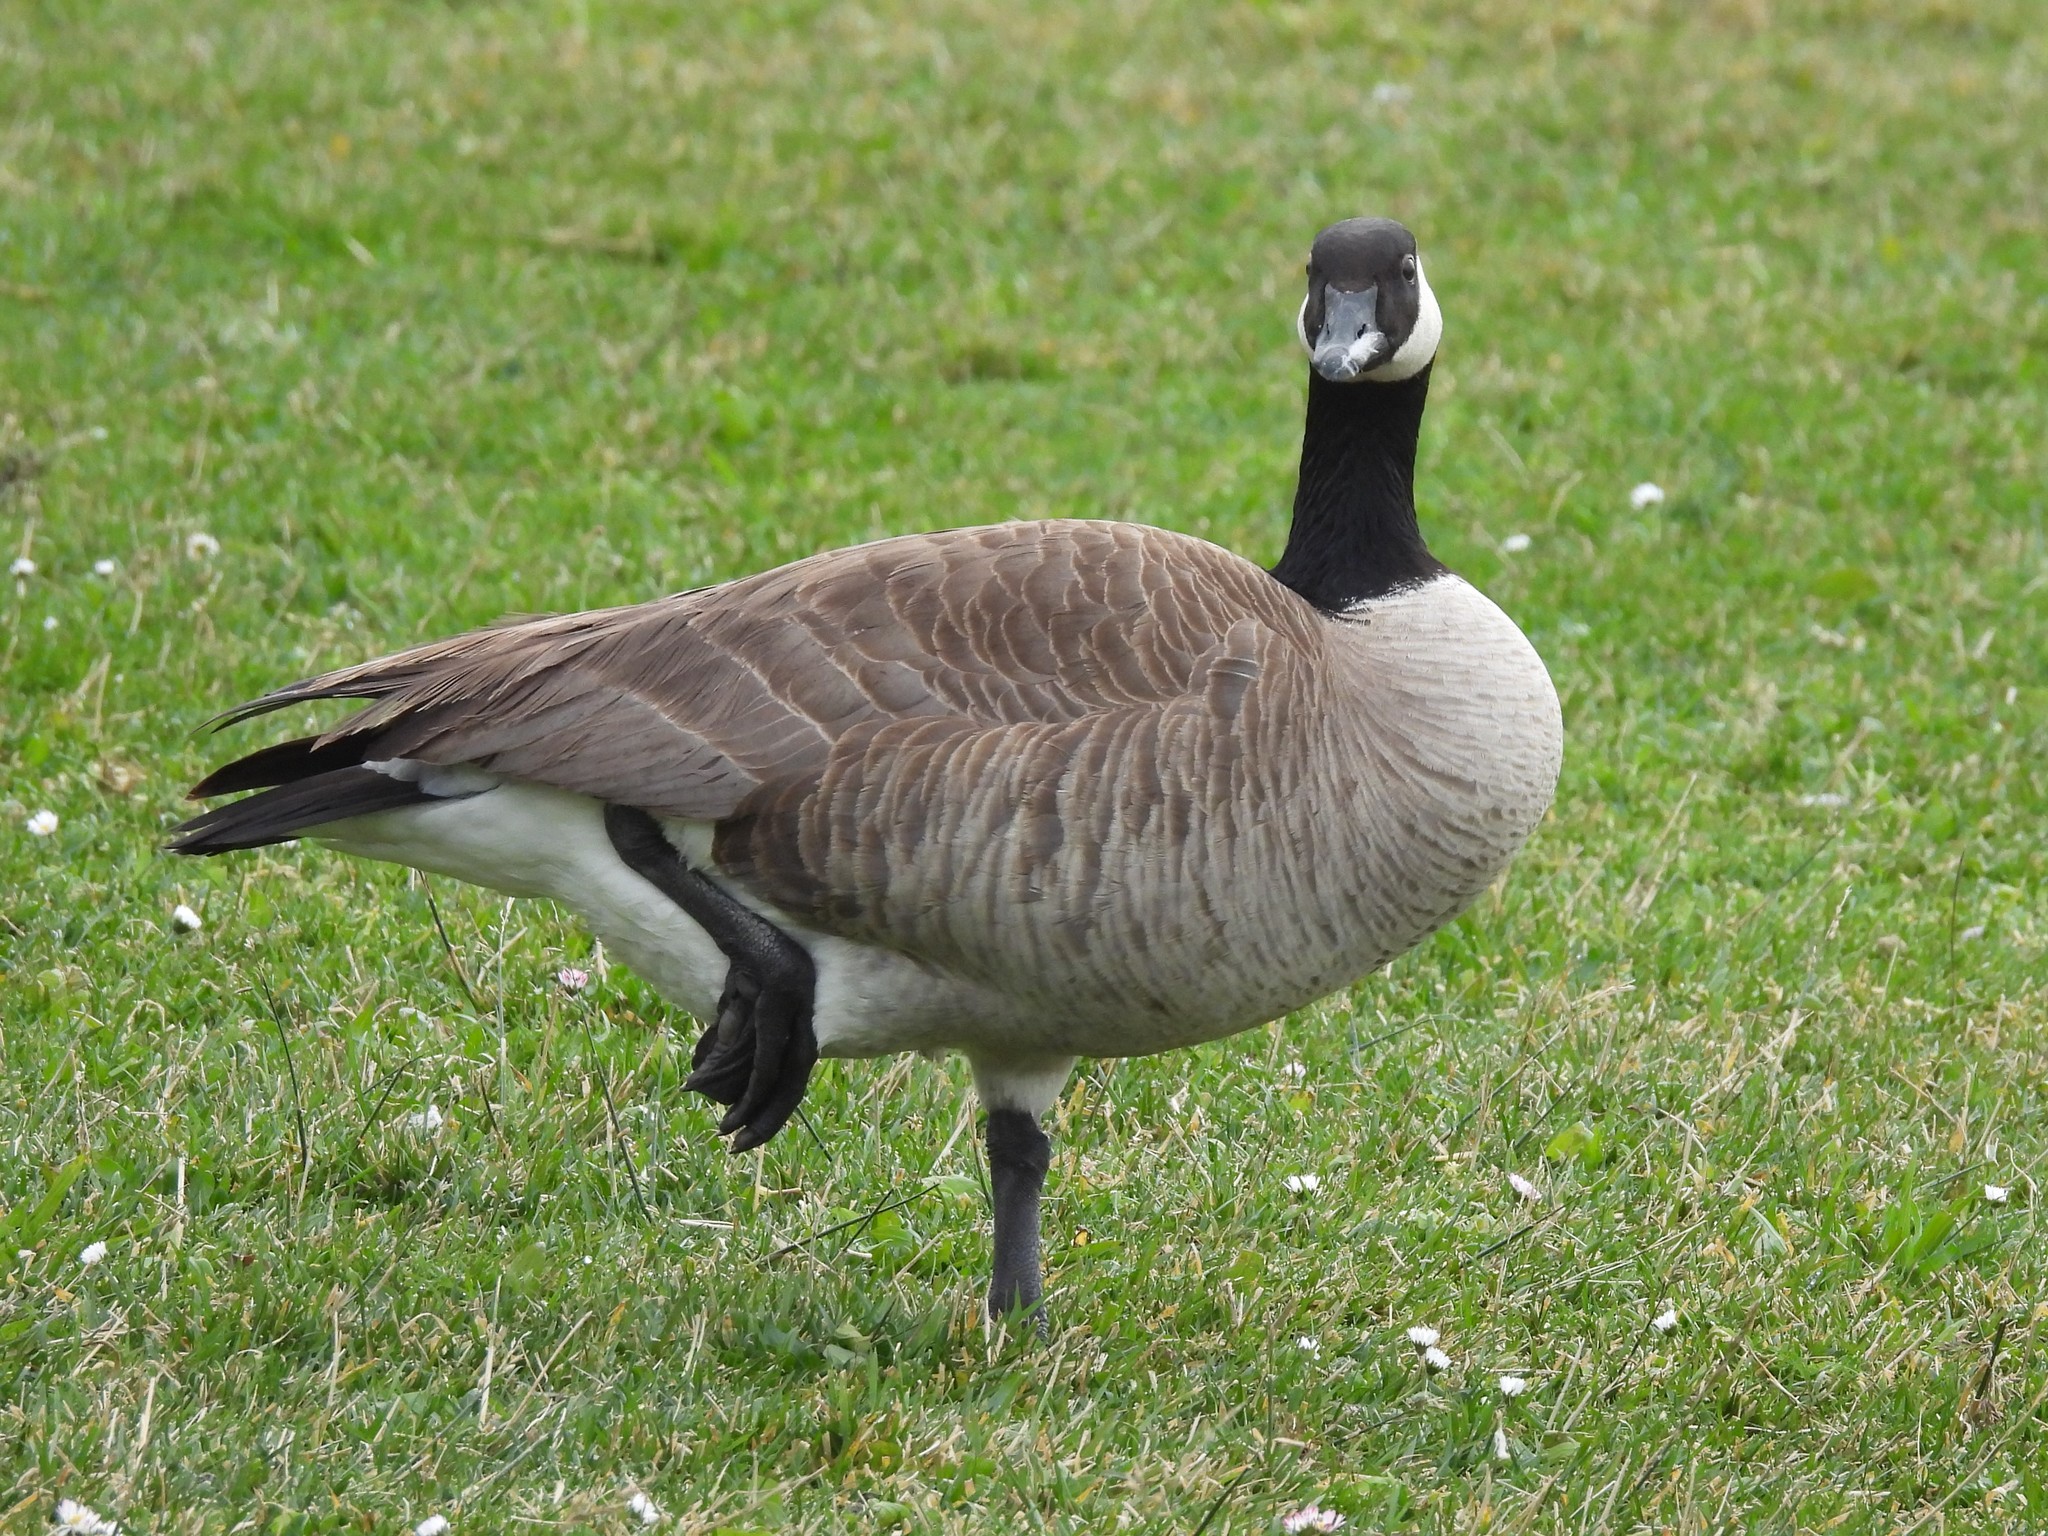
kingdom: Animalia
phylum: Chordata
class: Aves
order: Anseriformes
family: Anatidae
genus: Branta
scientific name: Branta canadensis
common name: Canada goose
